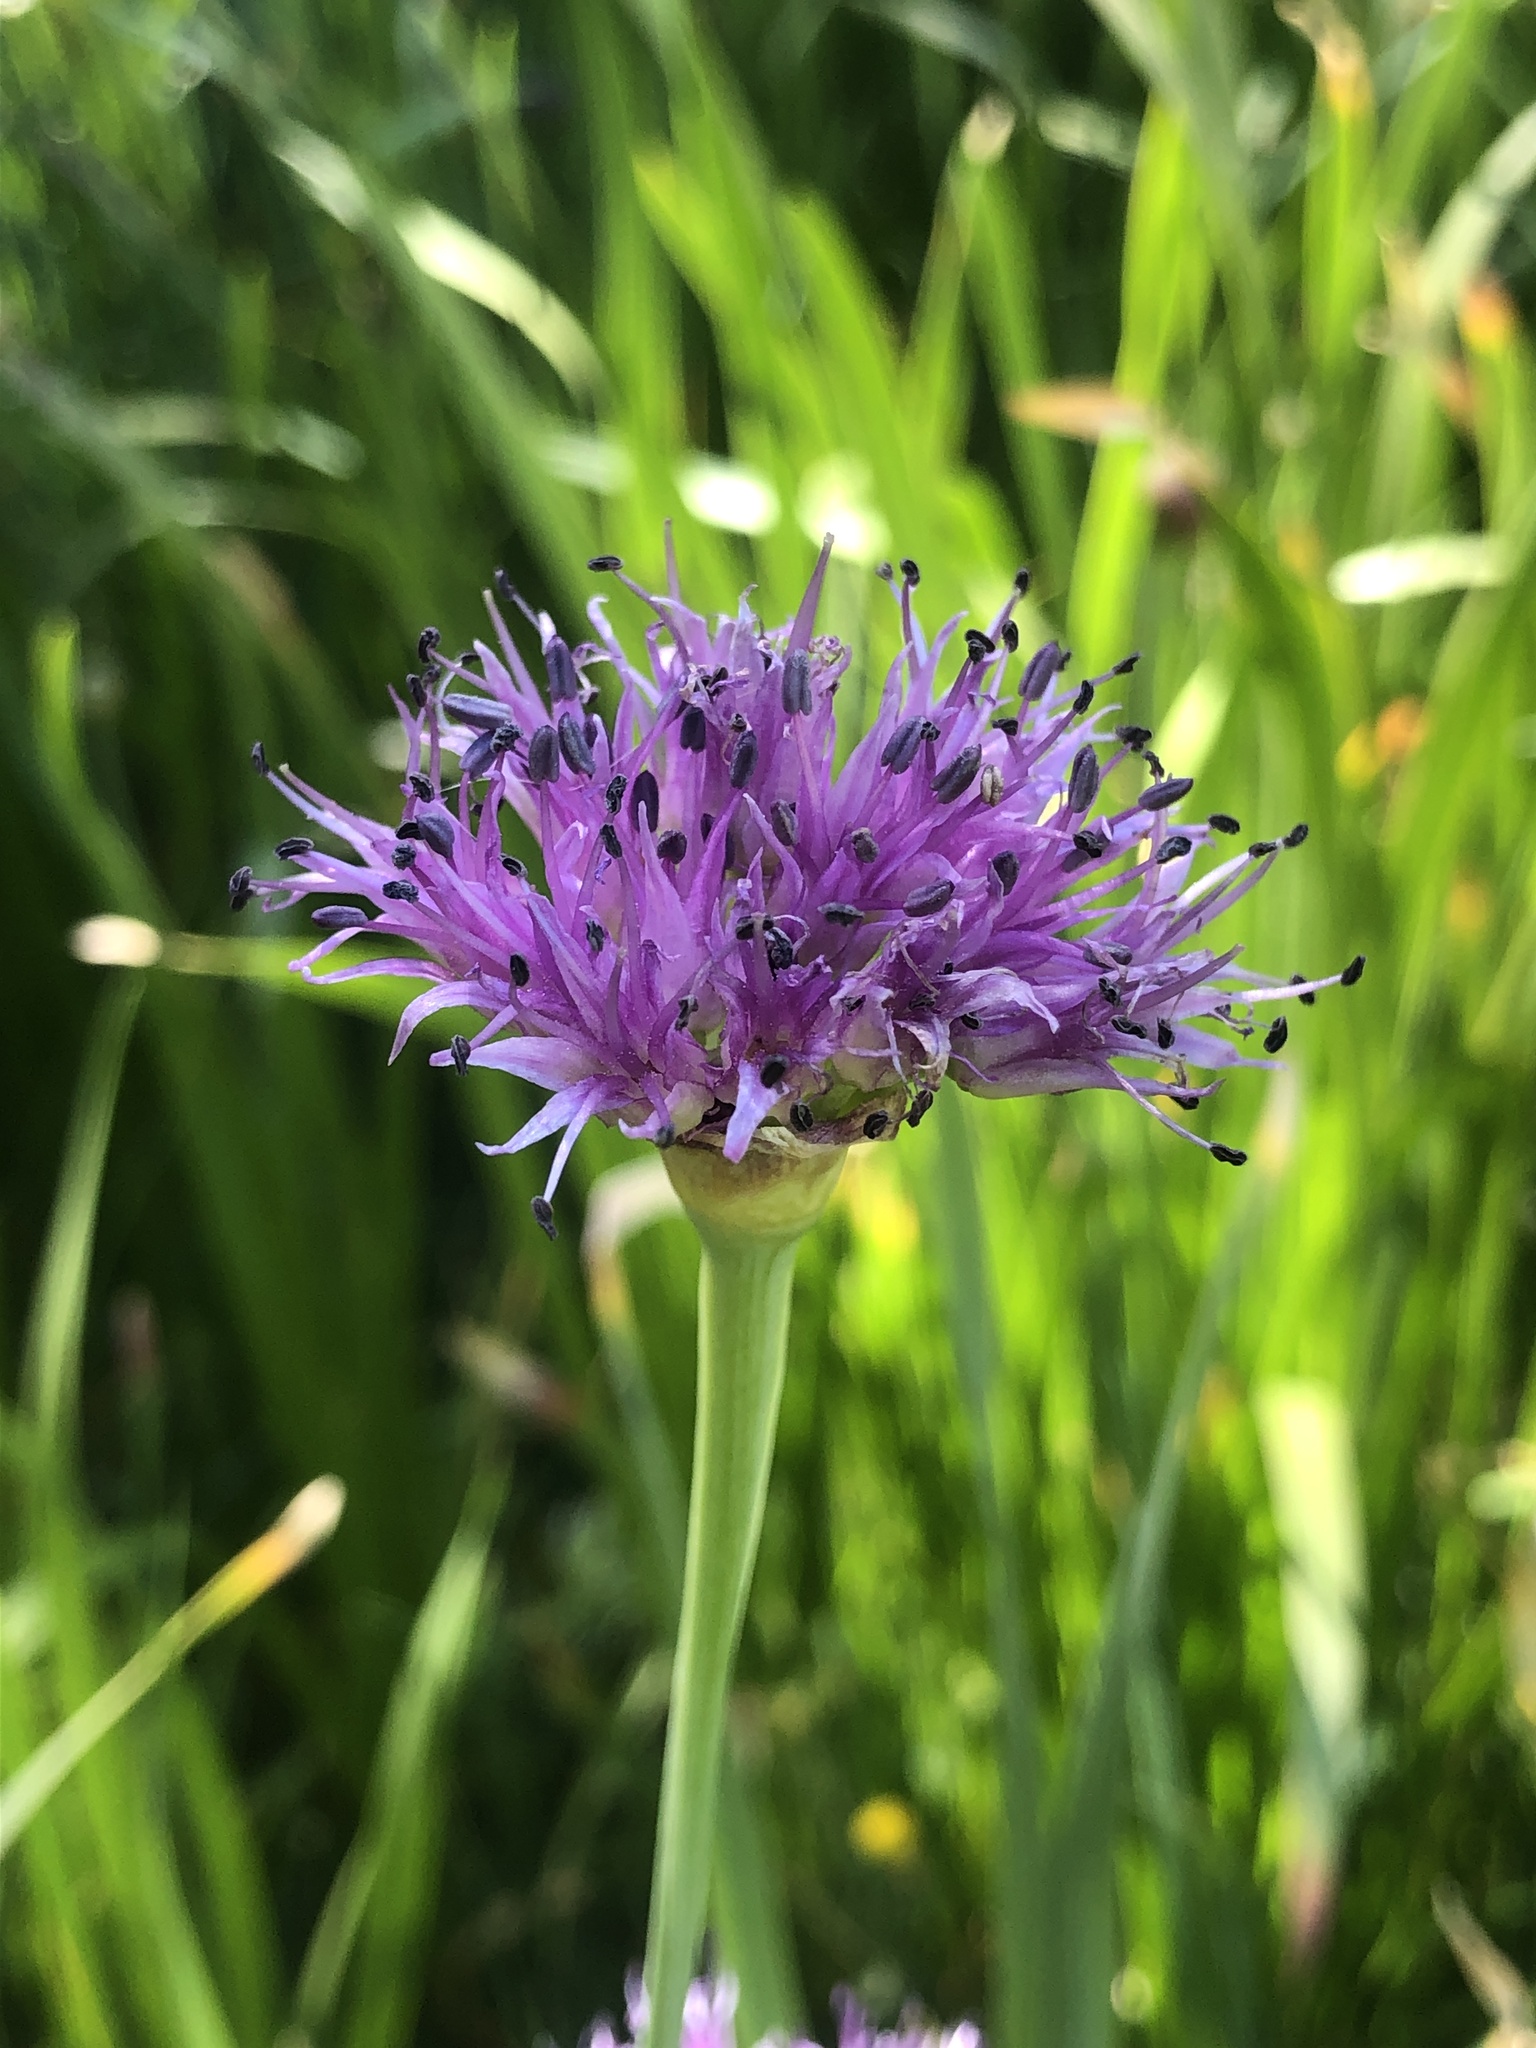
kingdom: Plantae
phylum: Tracheophyta
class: Liliopsida
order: Asparagales
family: Amaryllidaceae
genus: Allium
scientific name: Allium validum
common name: Pacific mountain onion
